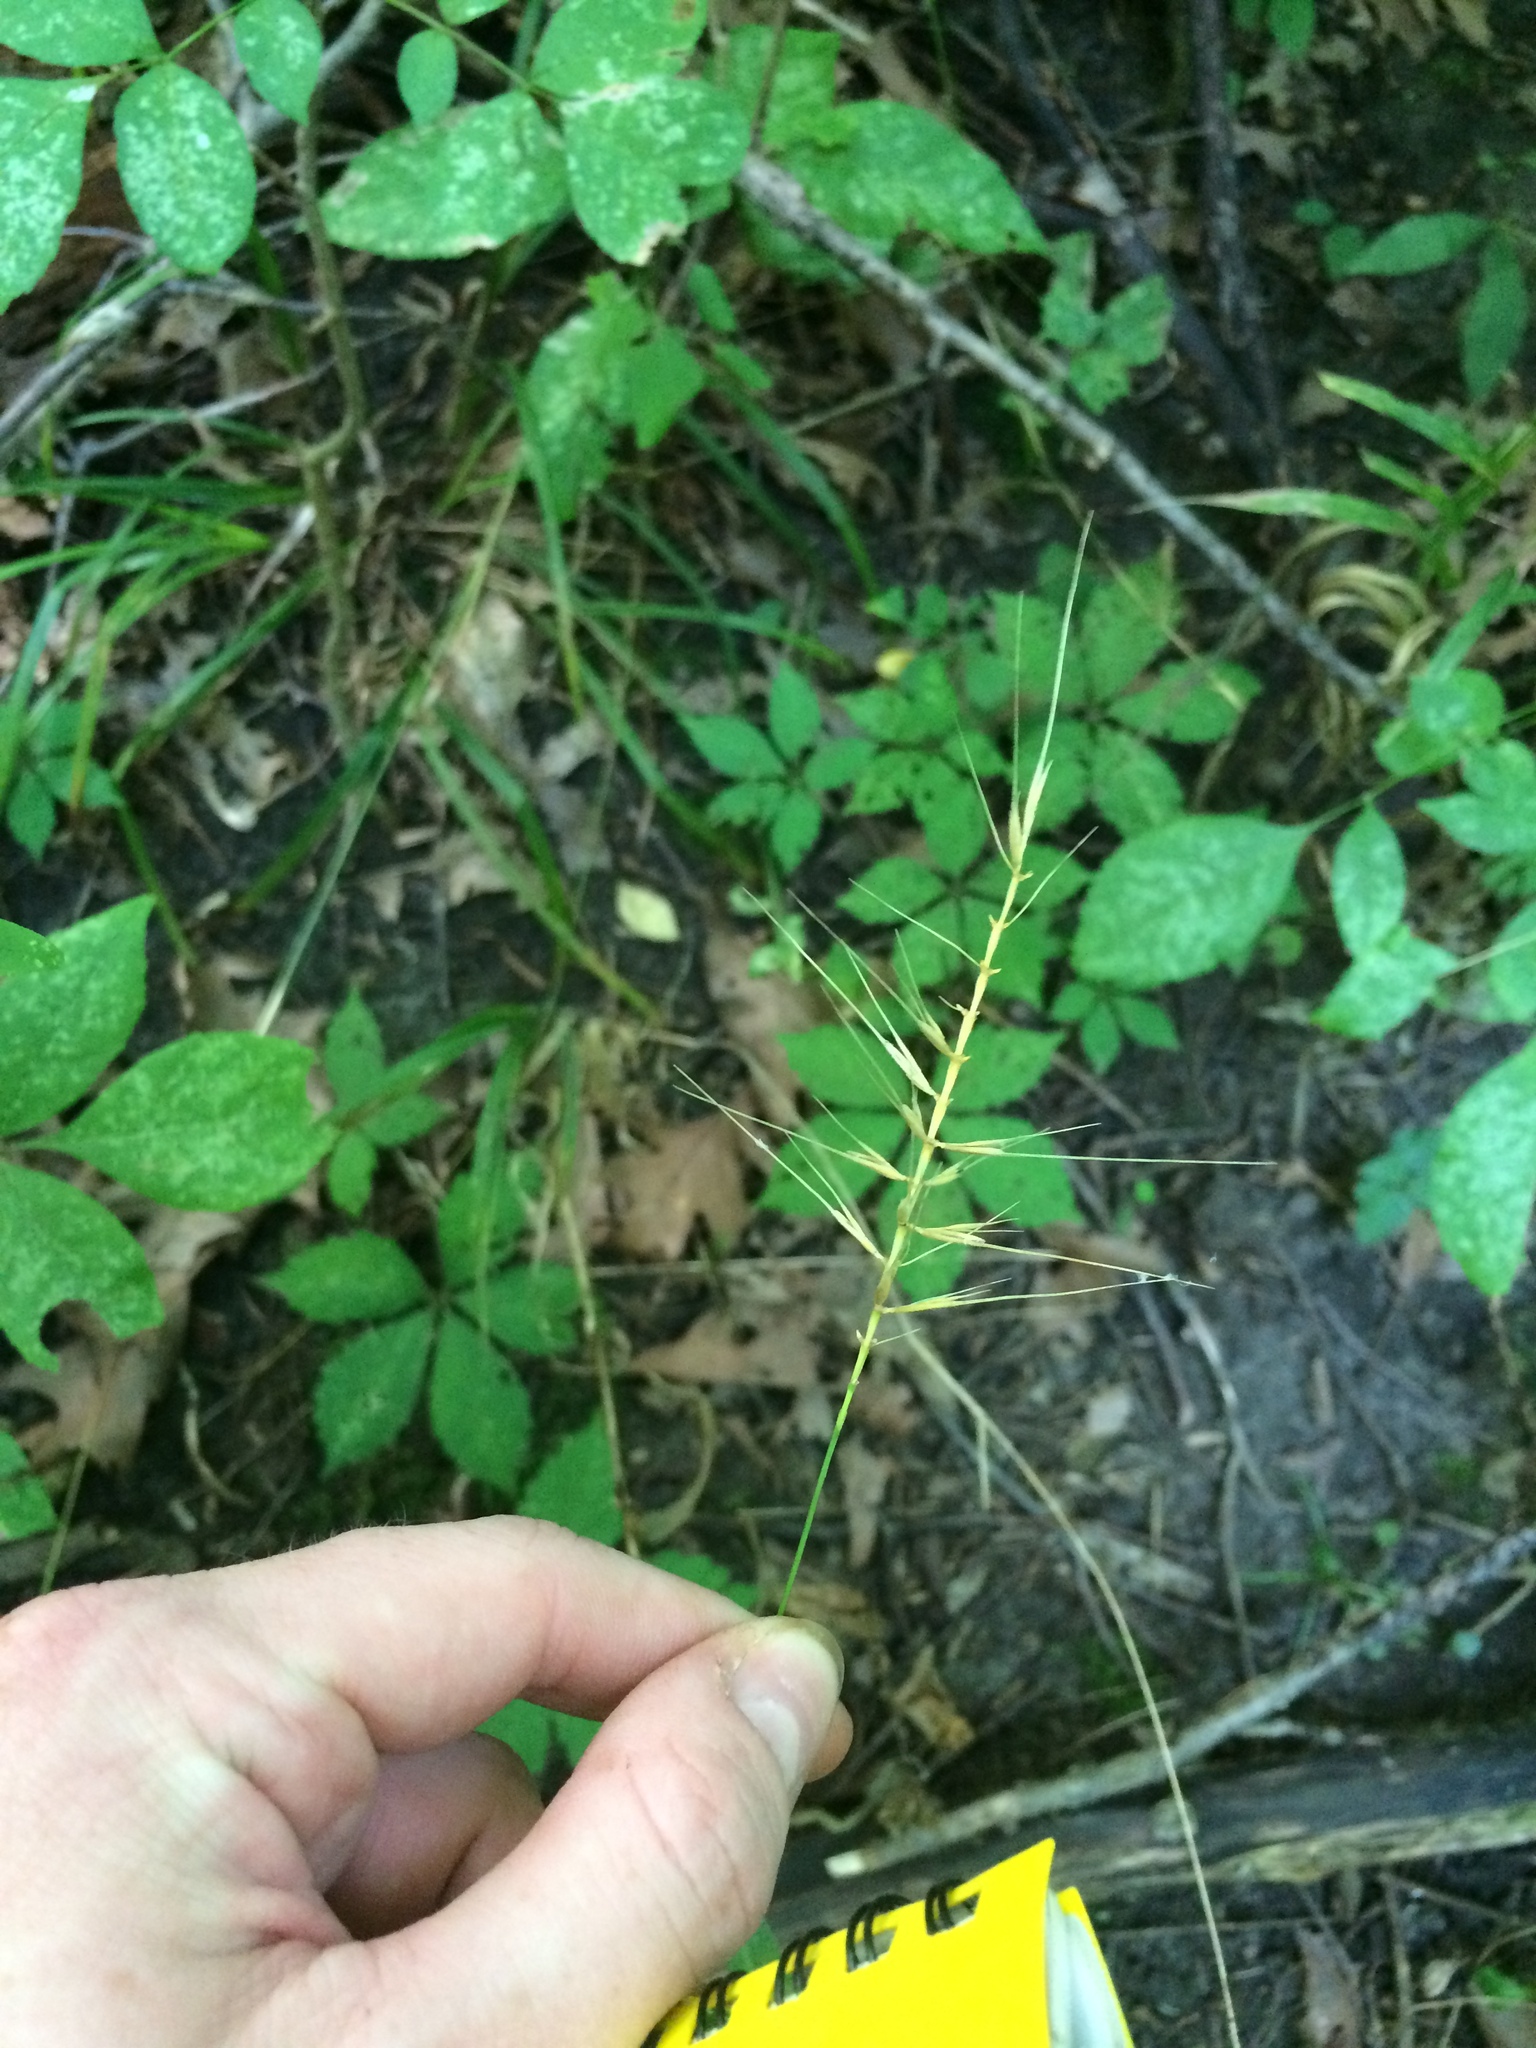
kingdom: Plantae
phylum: Tracheophyta
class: Liliopsida
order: Poales
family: Poaceae
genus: Elymus
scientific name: Elymus hystrix
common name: Bottlebrush grass
